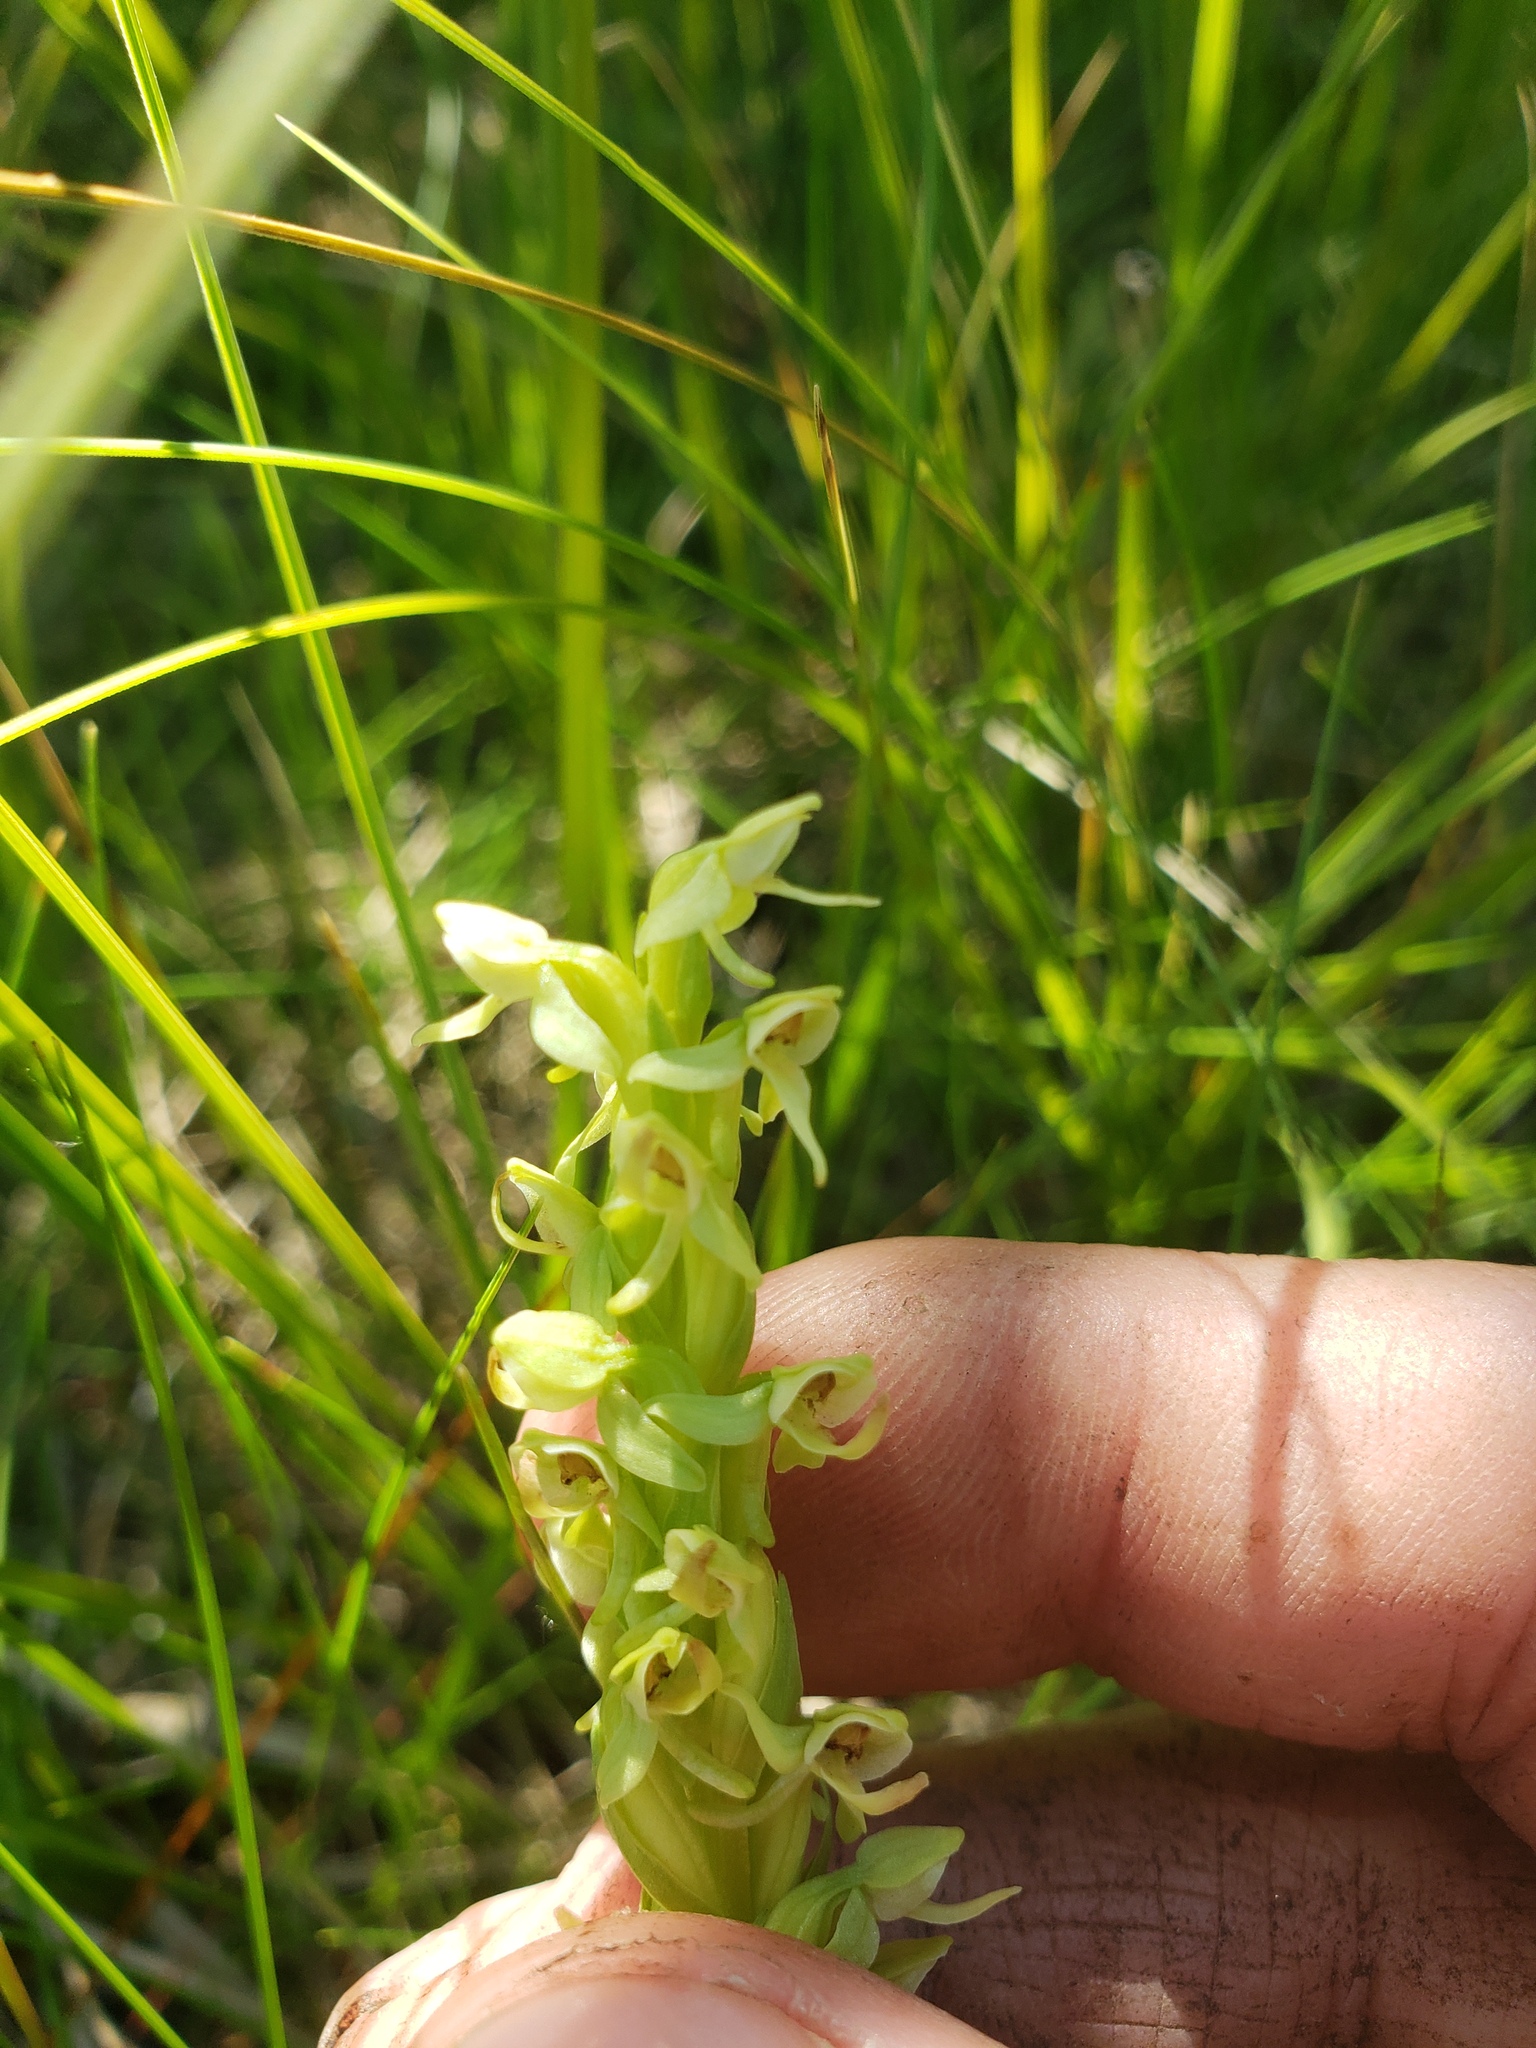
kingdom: Plantae
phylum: Tracheophyta
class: Liliopsida
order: Asparagales
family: Orchidaceae
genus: Platanthera
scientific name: Platanthera huronensis
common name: Fragrant green orchid
